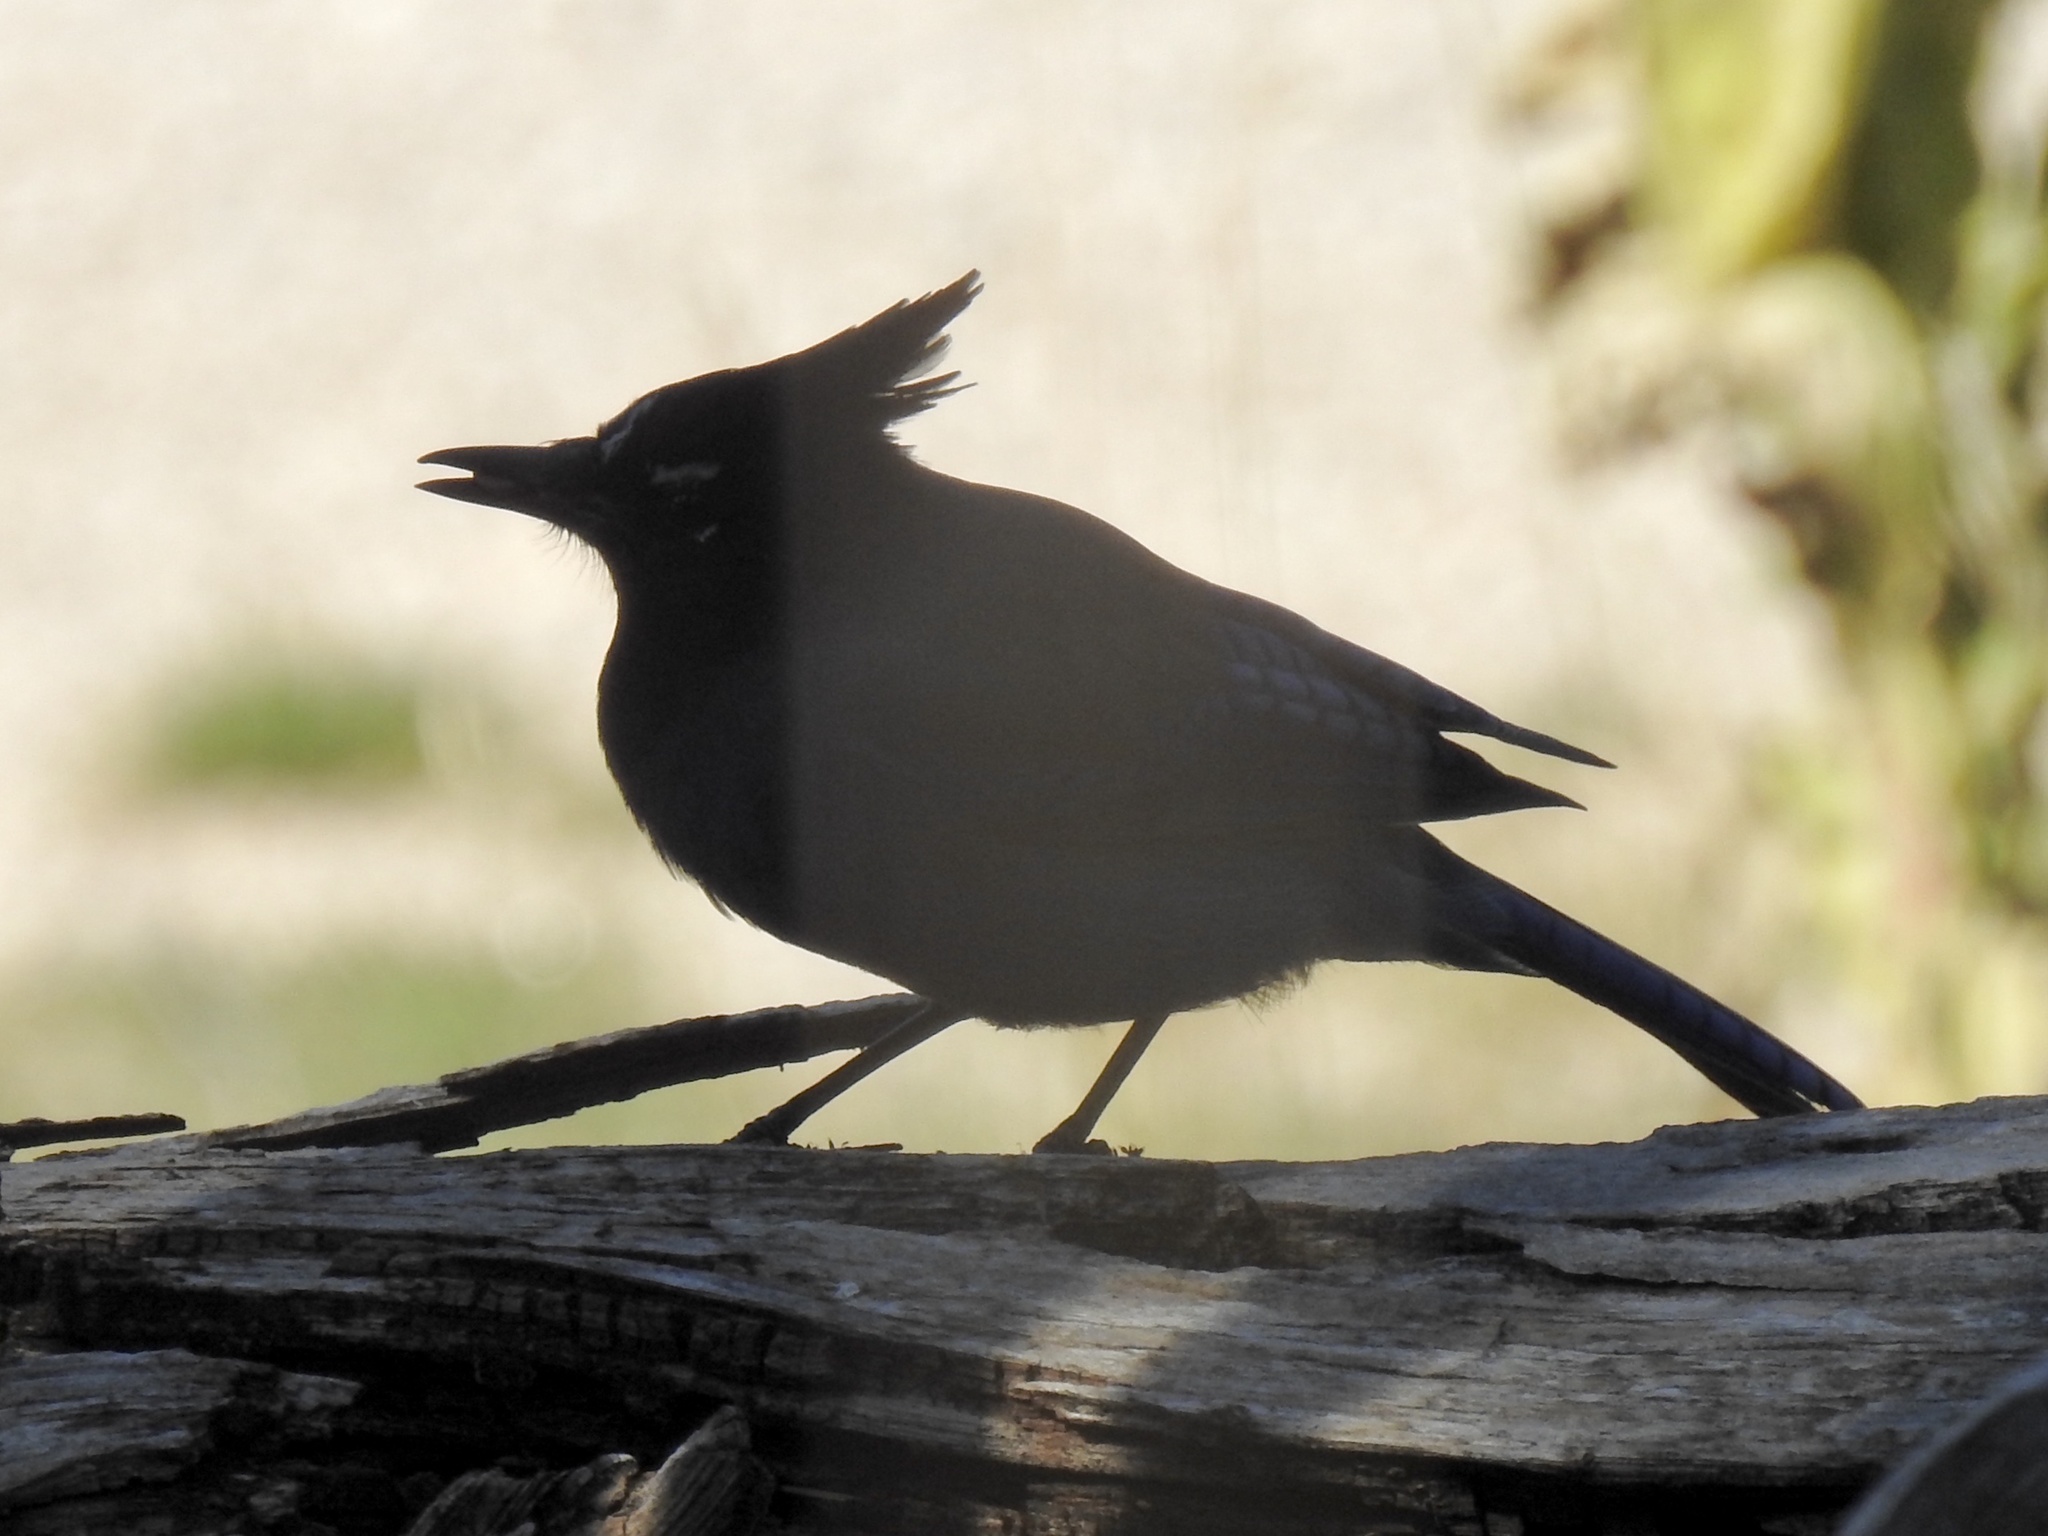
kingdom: Animalia
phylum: Chordata
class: Aves
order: Passeriformes
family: Corvidae
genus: Cyanocitta
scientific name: Cyanocitta stelleri
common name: Steller's jay
